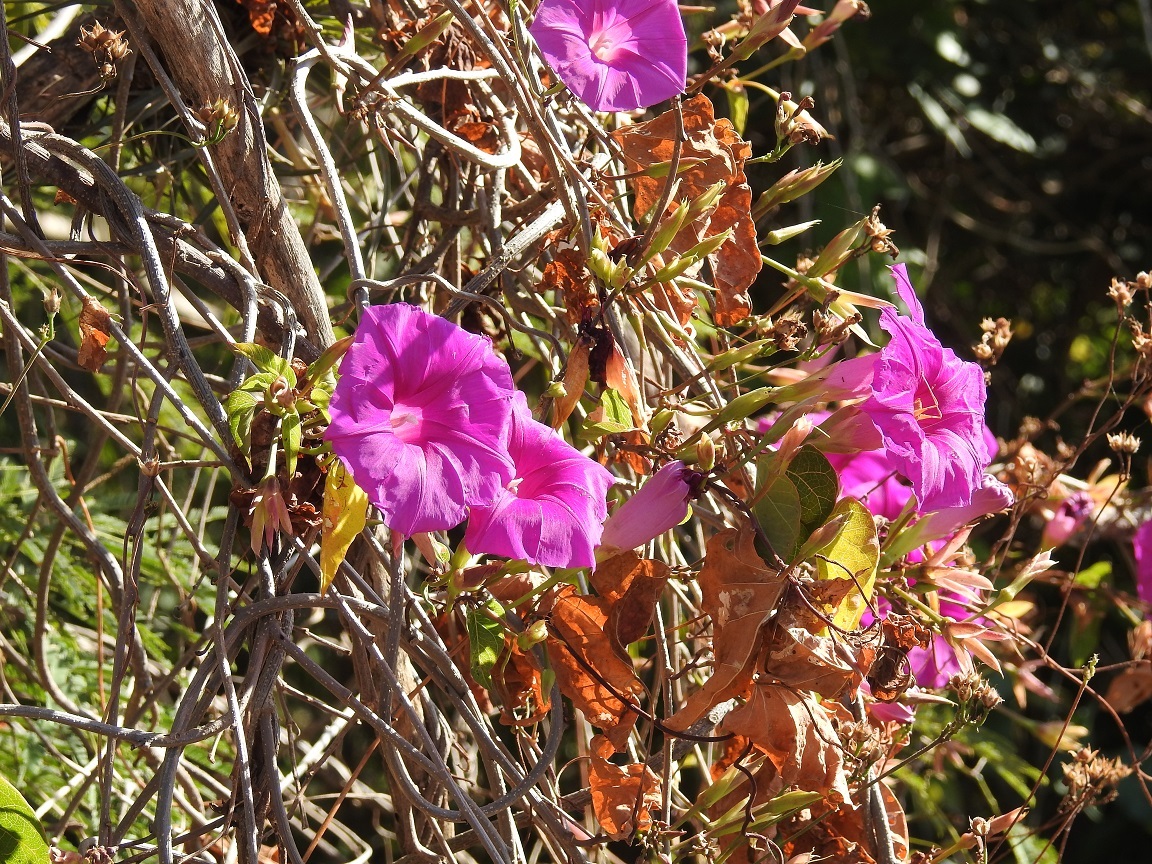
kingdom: Plantae
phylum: Tracheophyta
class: Magnoliopsida
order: Solanales
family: Convolvulaceae
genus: Ipomoea
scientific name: Ipomoea bernoulliana
